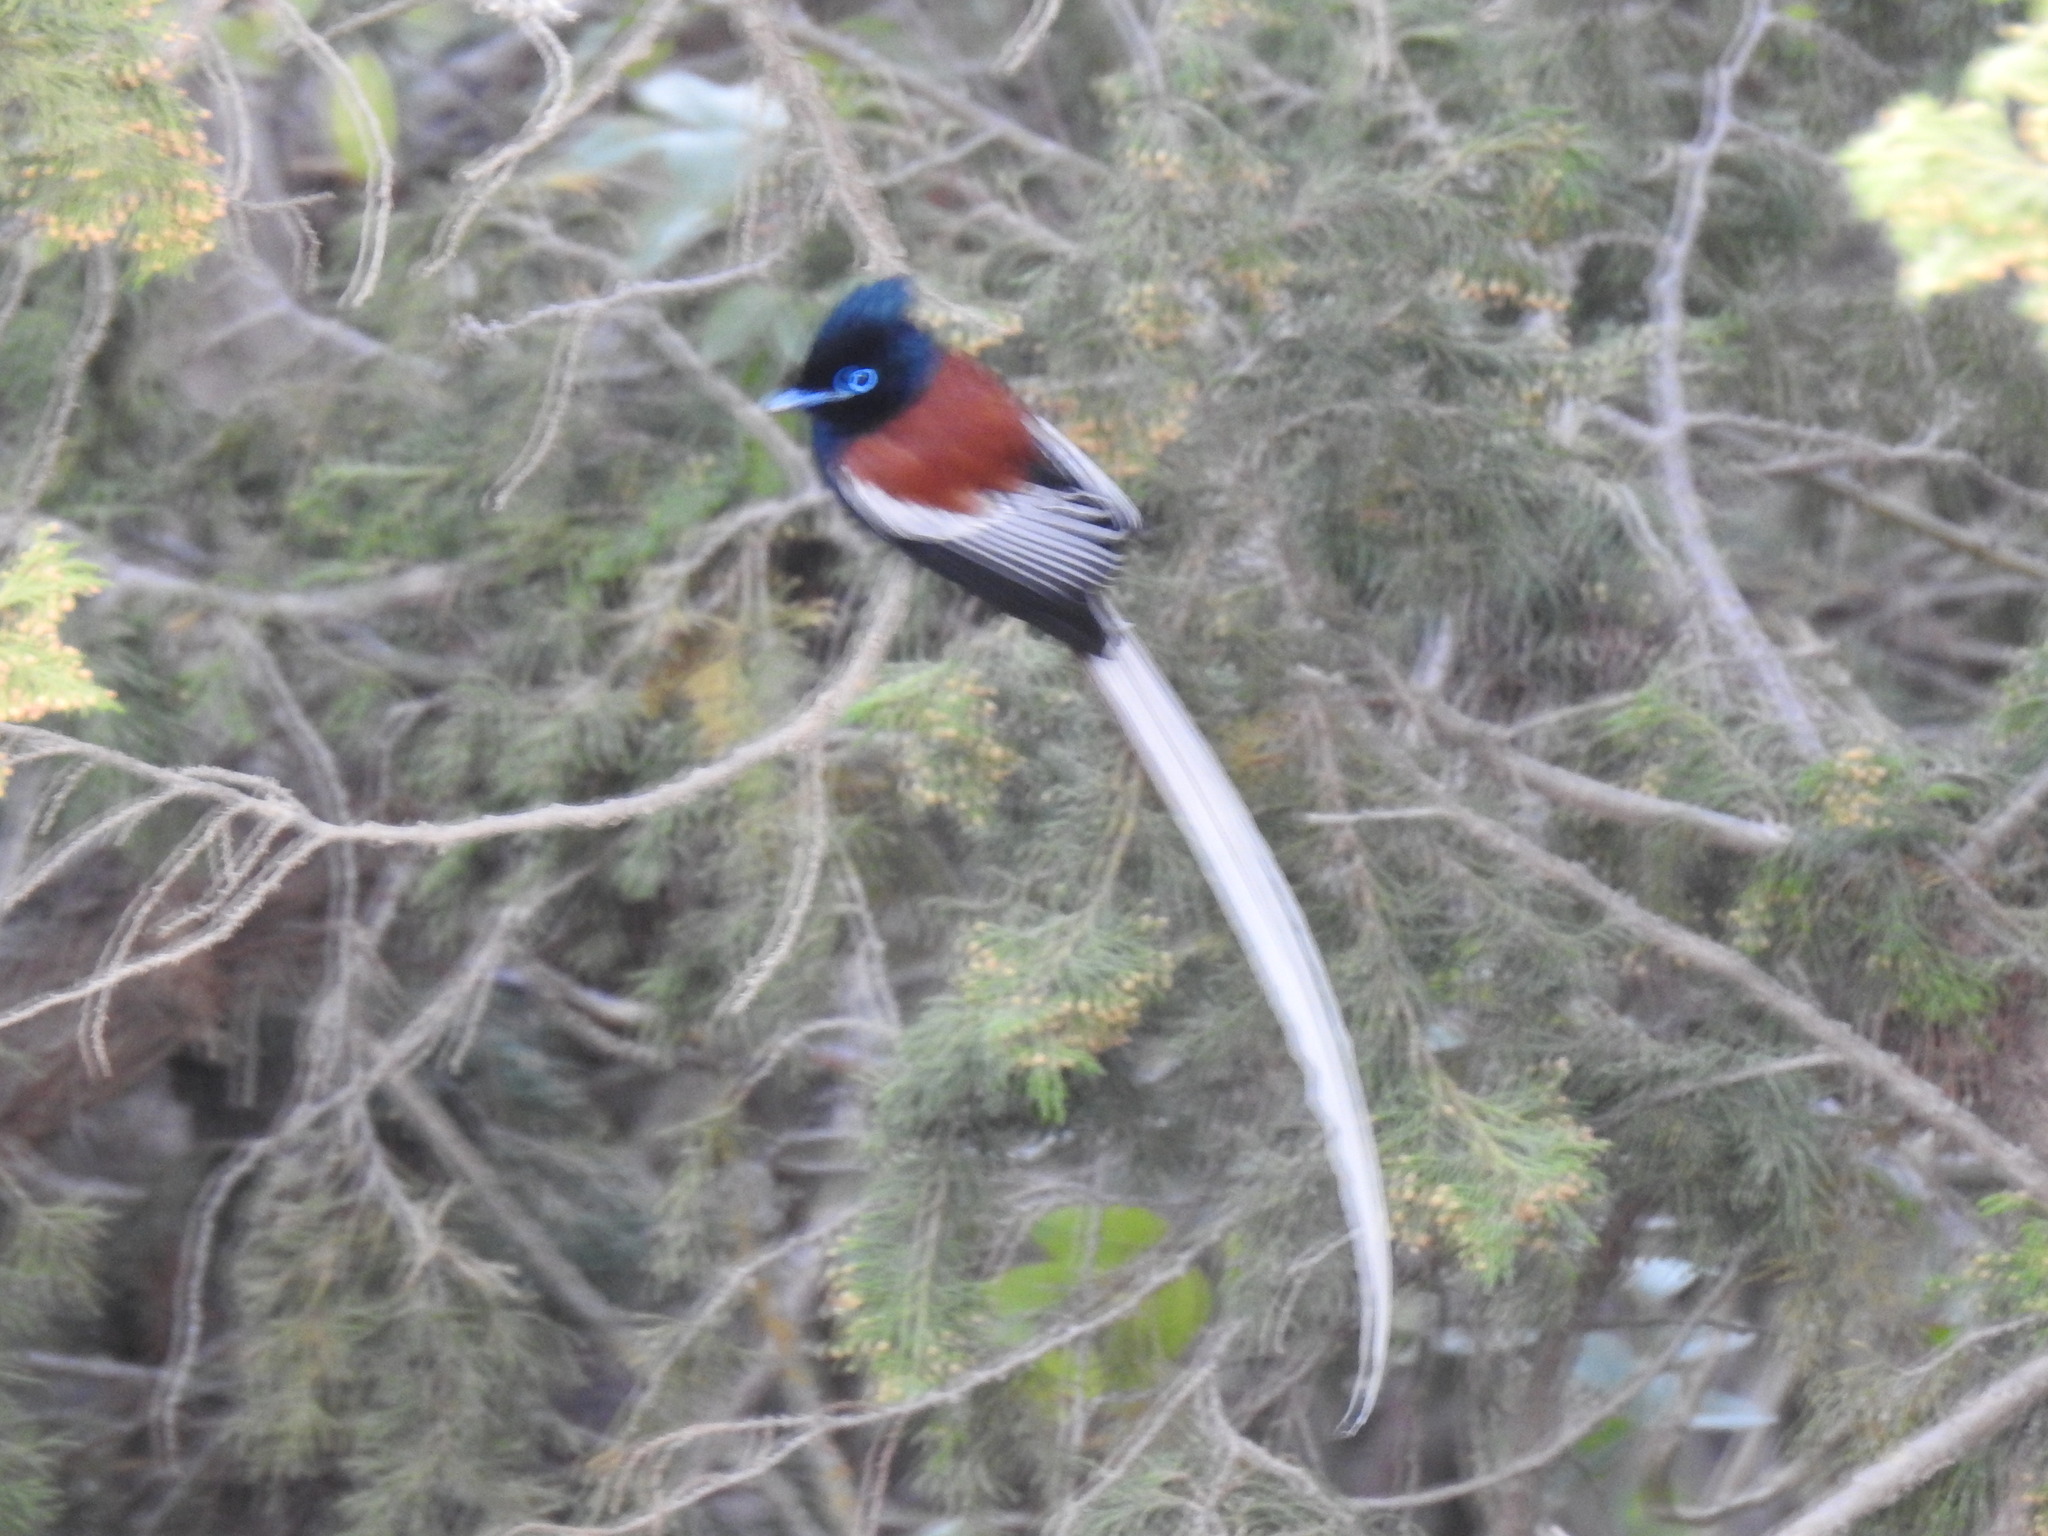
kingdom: Animalia
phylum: Chordata
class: Aves
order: Passeriformes
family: Monarchidae
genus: Terpsiphone
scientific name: Terpsiphone viridis
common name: African paradise flycatcher
